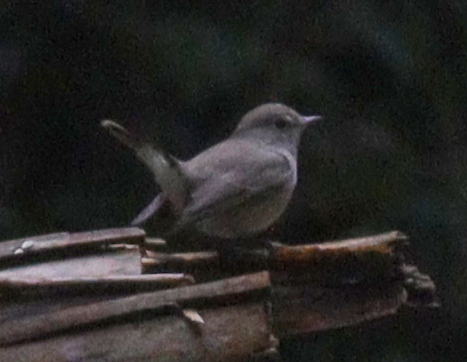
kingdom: Animalia
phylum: Chordata
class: Aves
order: Passeriformes
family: Muscicapidae
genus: Ficedula
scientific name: Ficedula albicilla
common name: Taiga flycatcher
